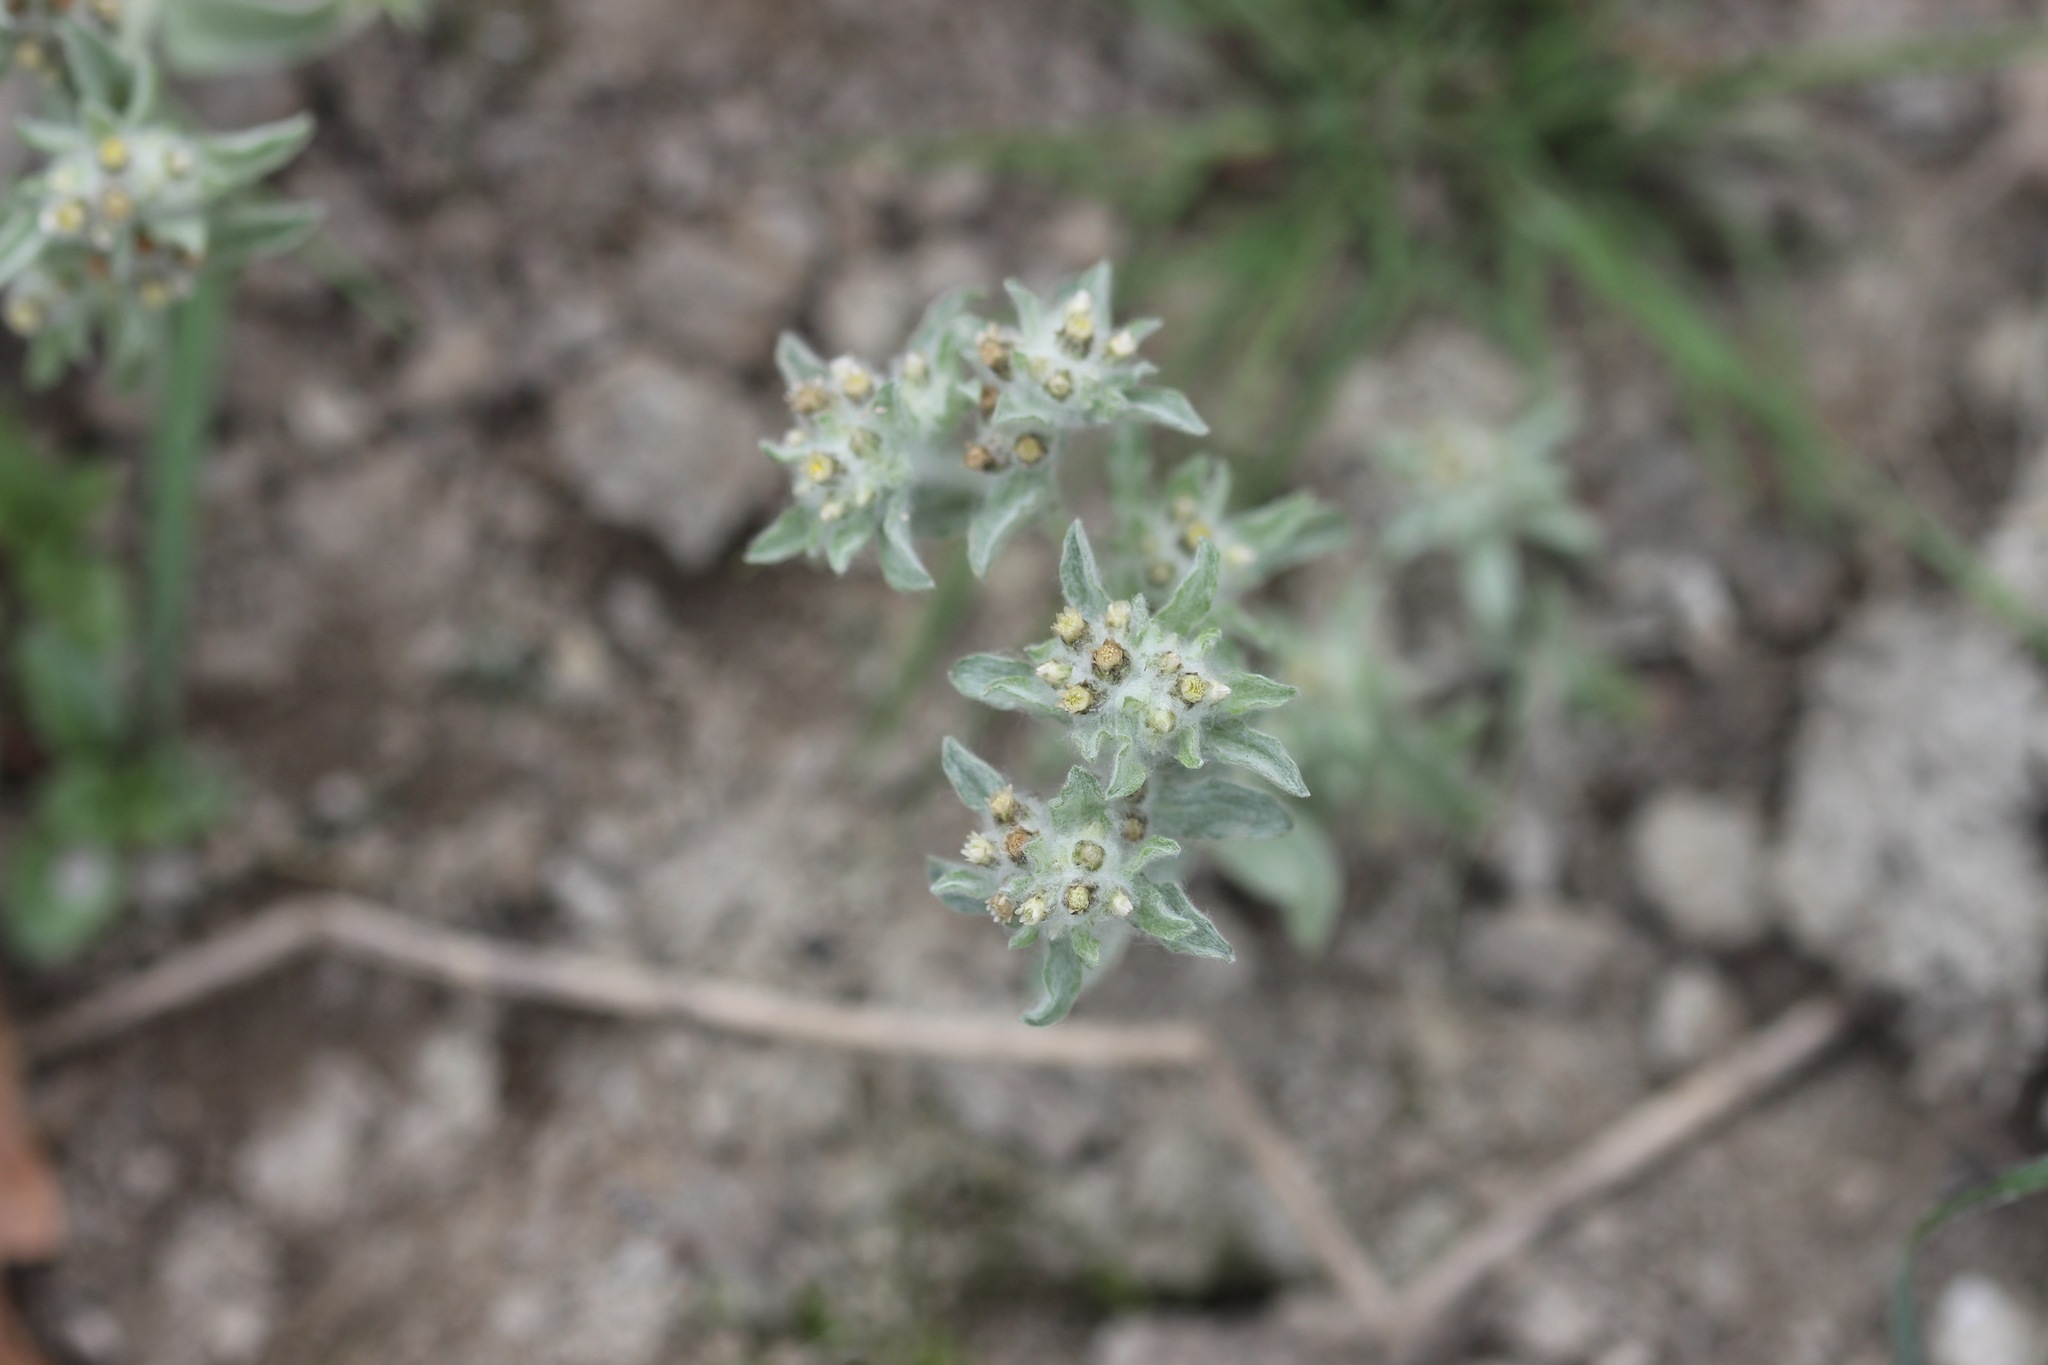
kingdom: Plantae
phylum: Tracheophyta
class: Magnoliopsida
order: Asterales
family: Asteraceae
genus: Gnaphalium
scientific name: Gnaphalium palustre
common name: Western marsh cudweed
